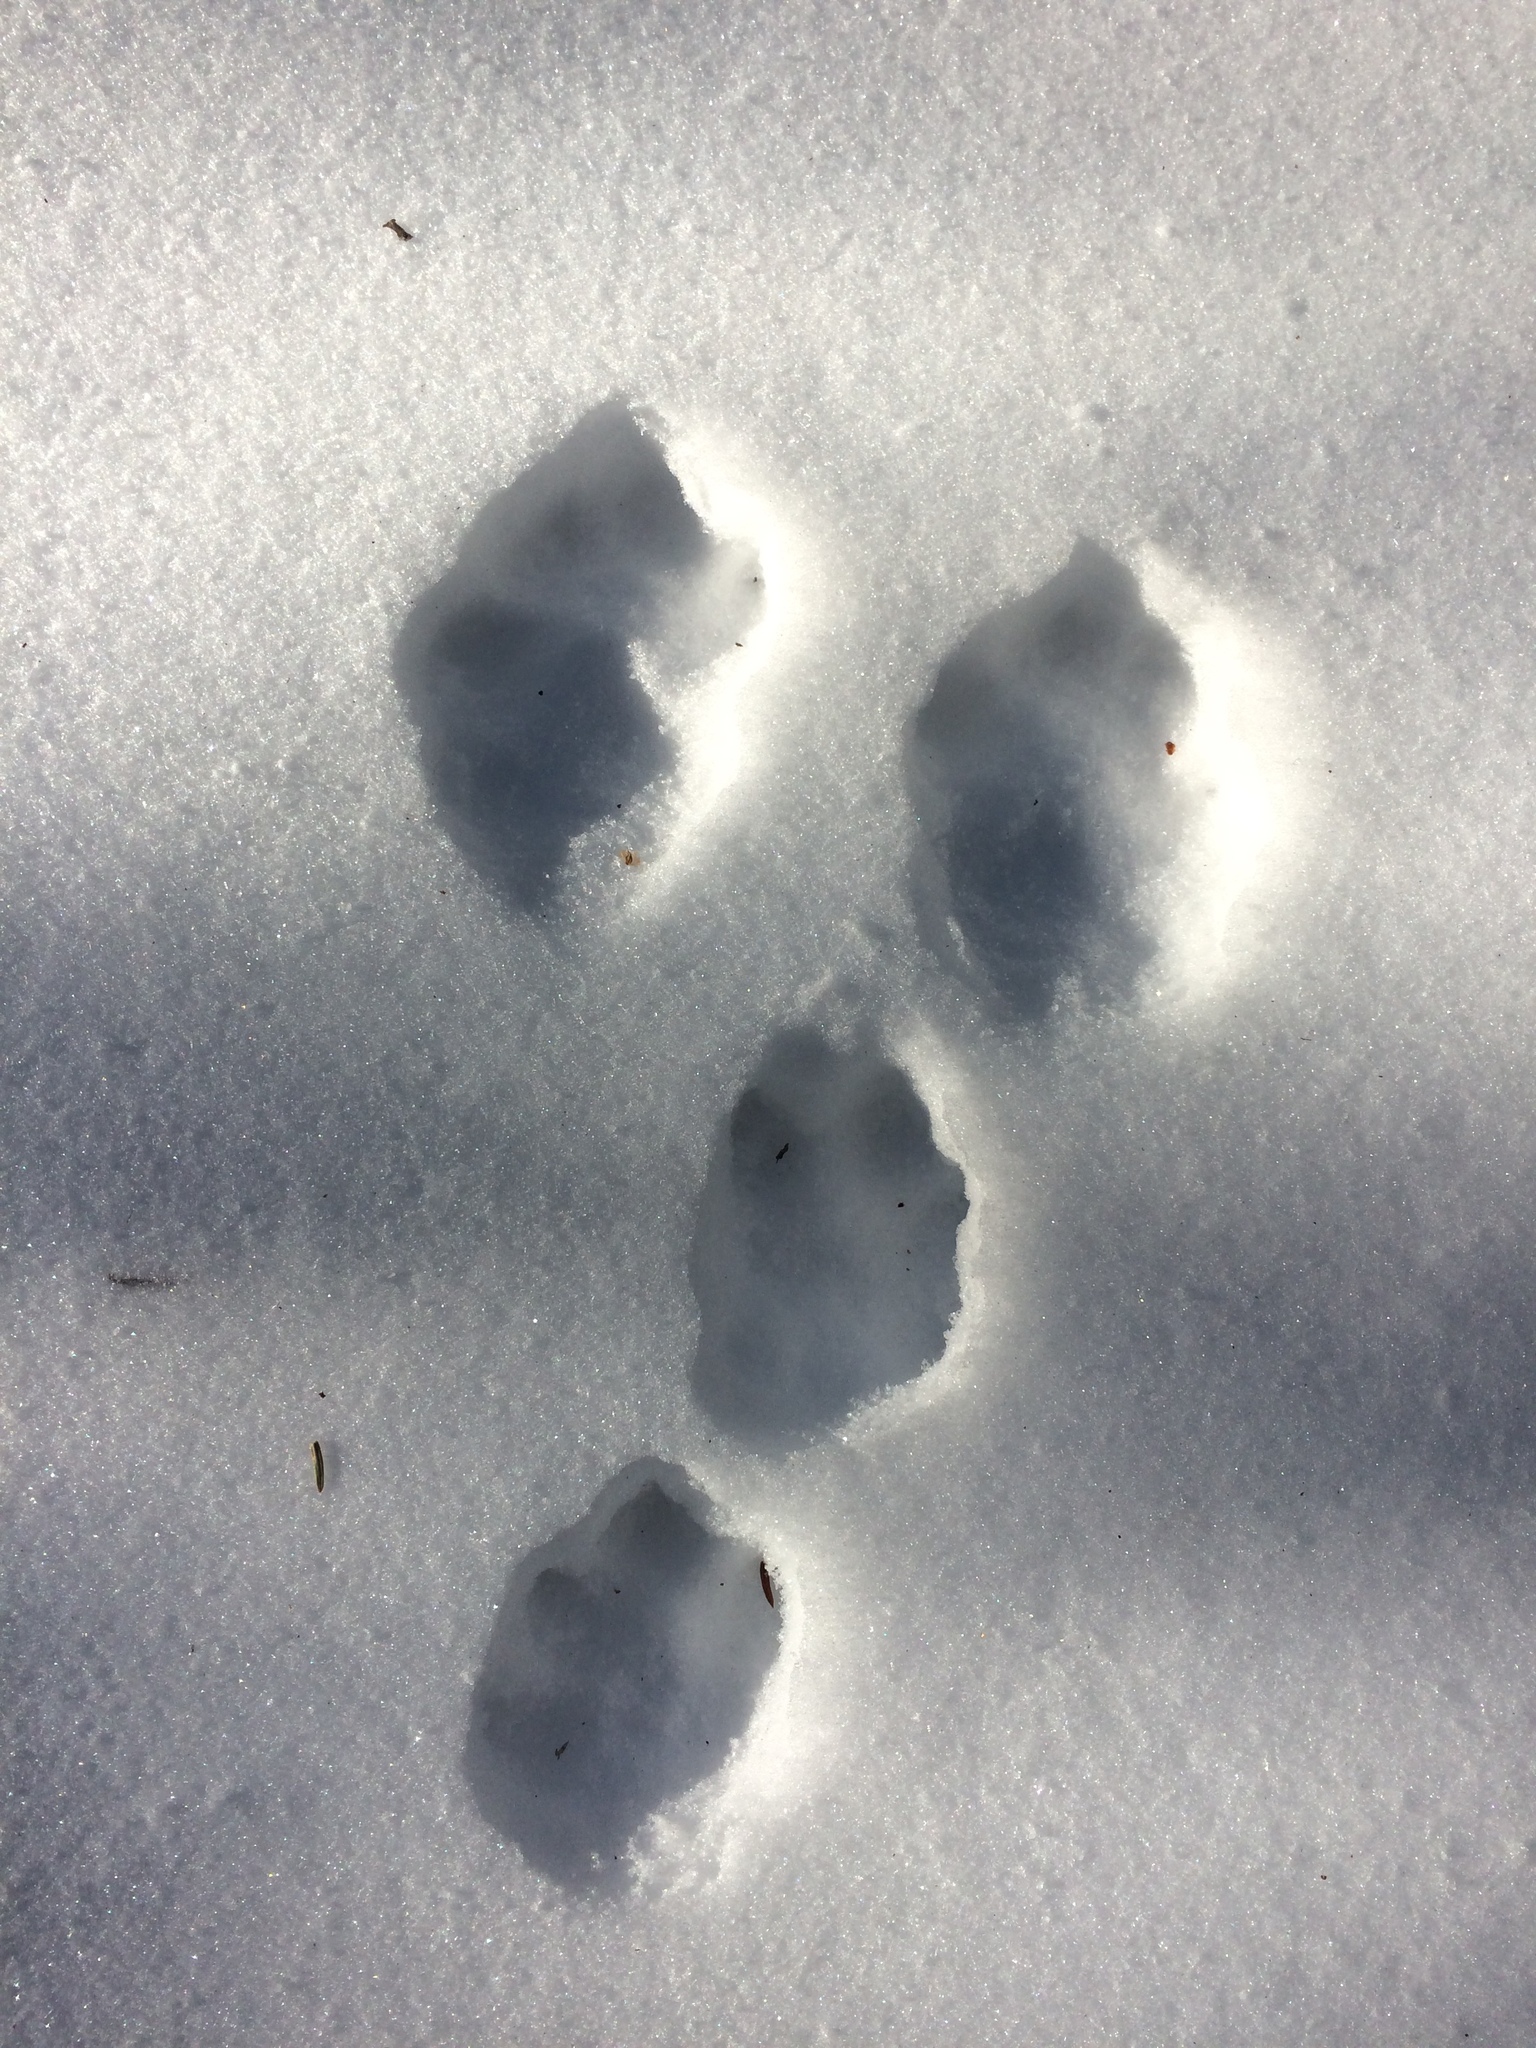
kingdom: Animalia
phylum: Chordata
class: Mammalia
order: Lagomorpha
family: Leporidae
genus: Lepus
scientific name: Lepus americanus
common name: Snowshoe hare
